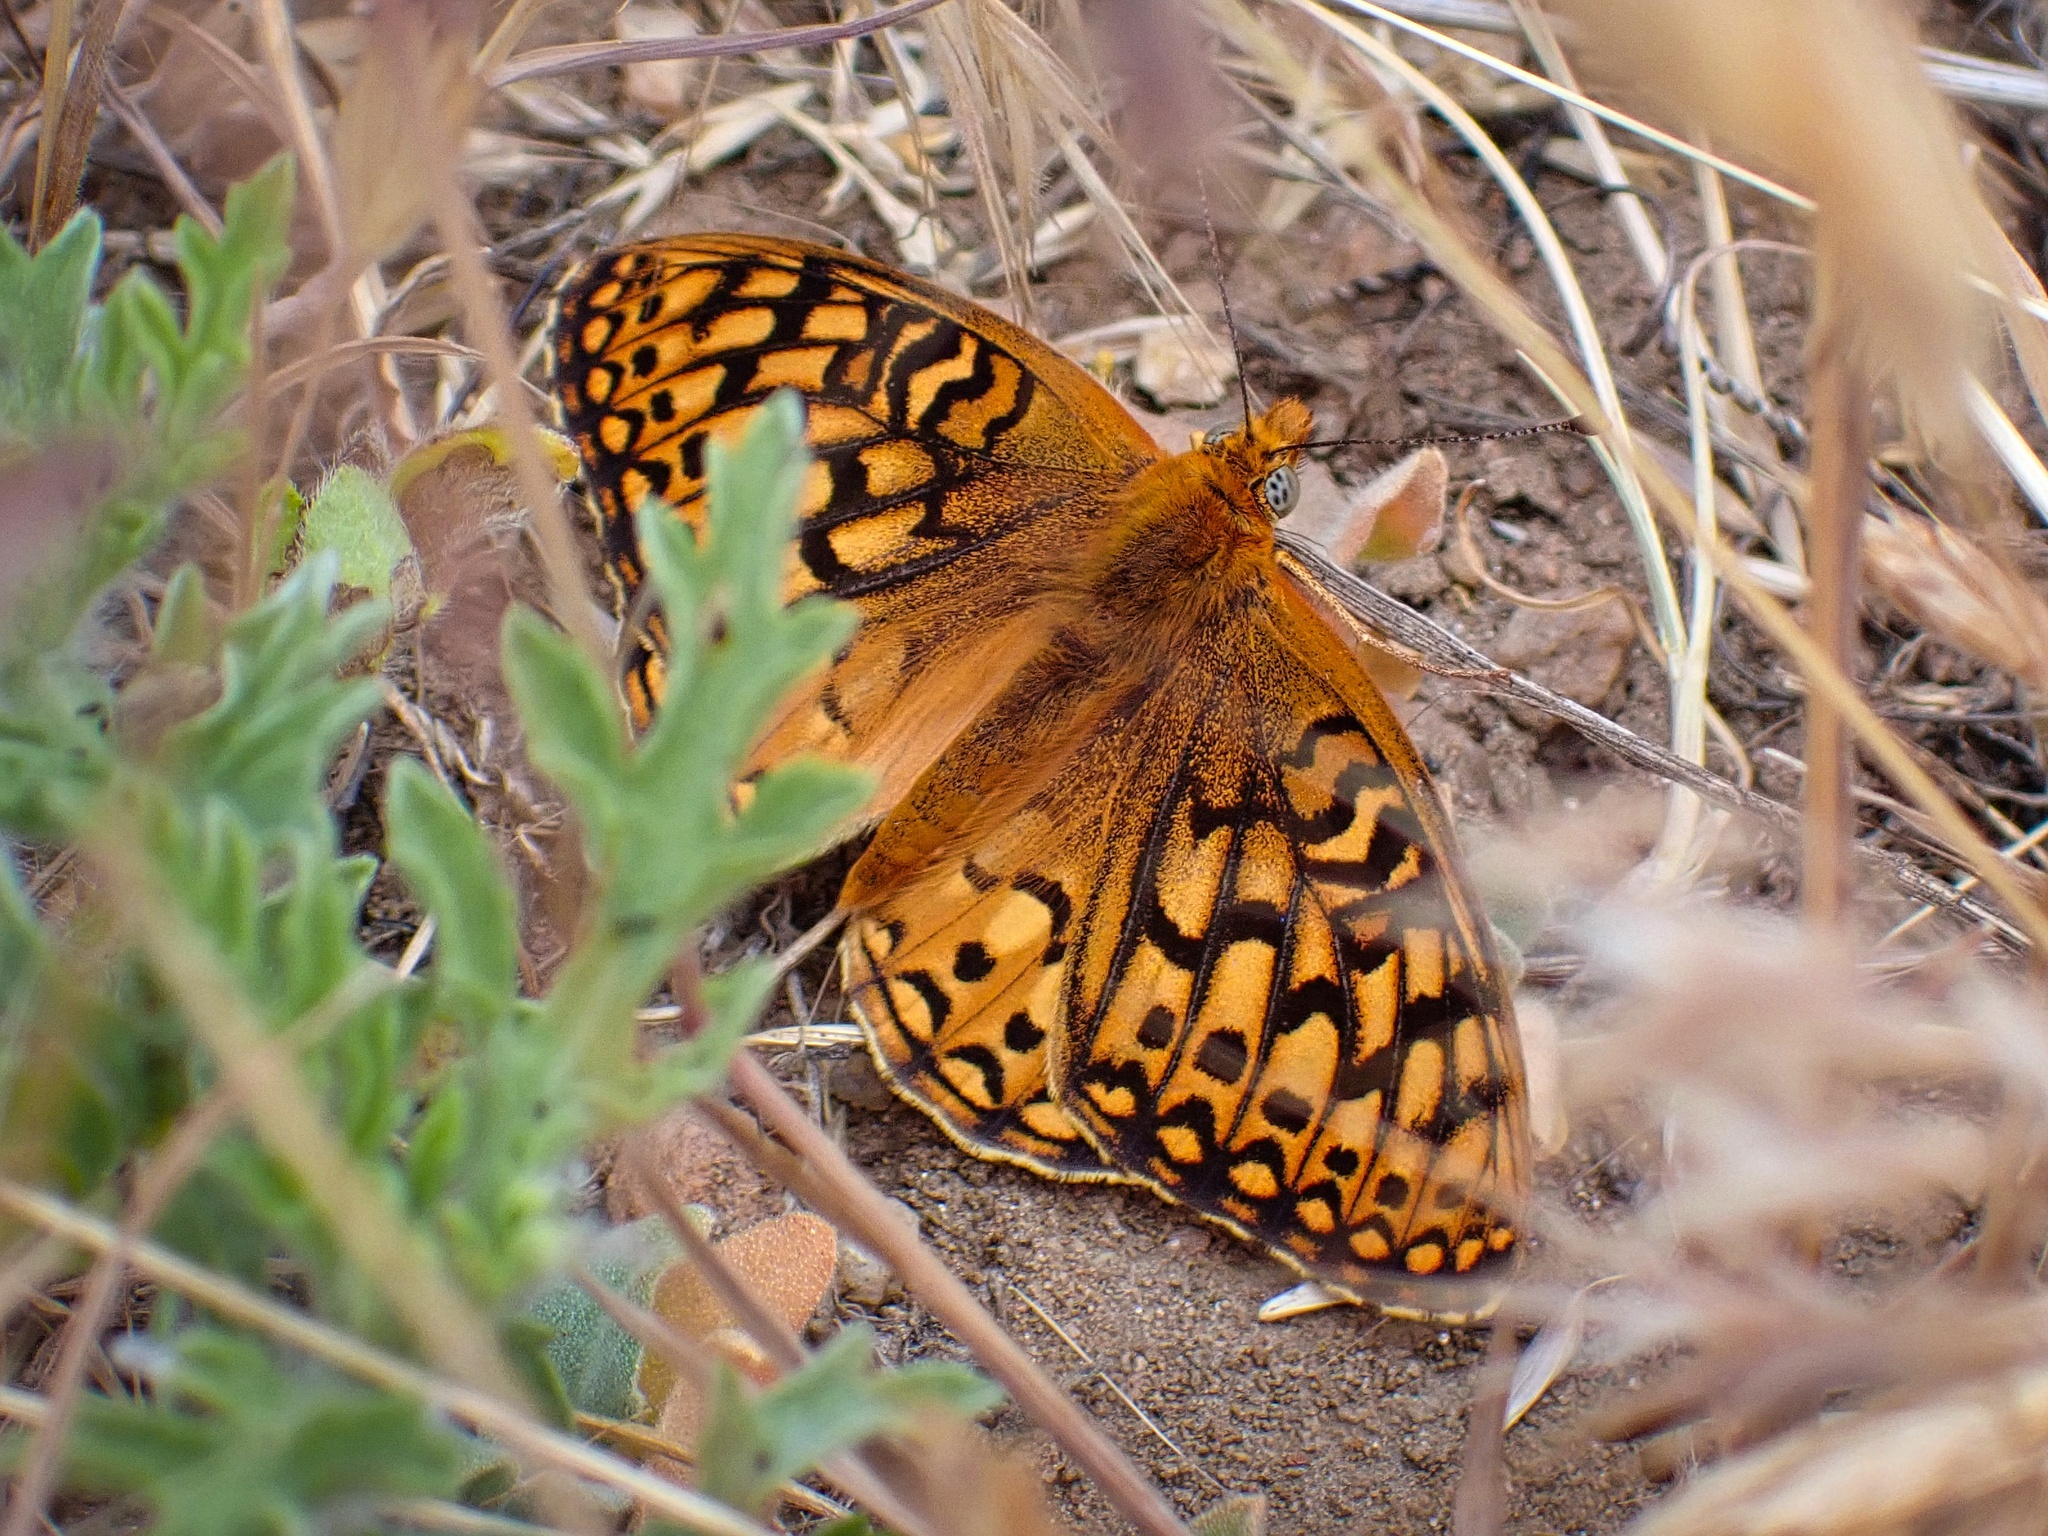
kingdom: Animalia
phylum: Arthropoda
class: Insecta
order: Lepidoptera
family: Nymphalidae
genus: Speyeria
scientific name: Speyeria callippe
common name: Callippe fritillary
